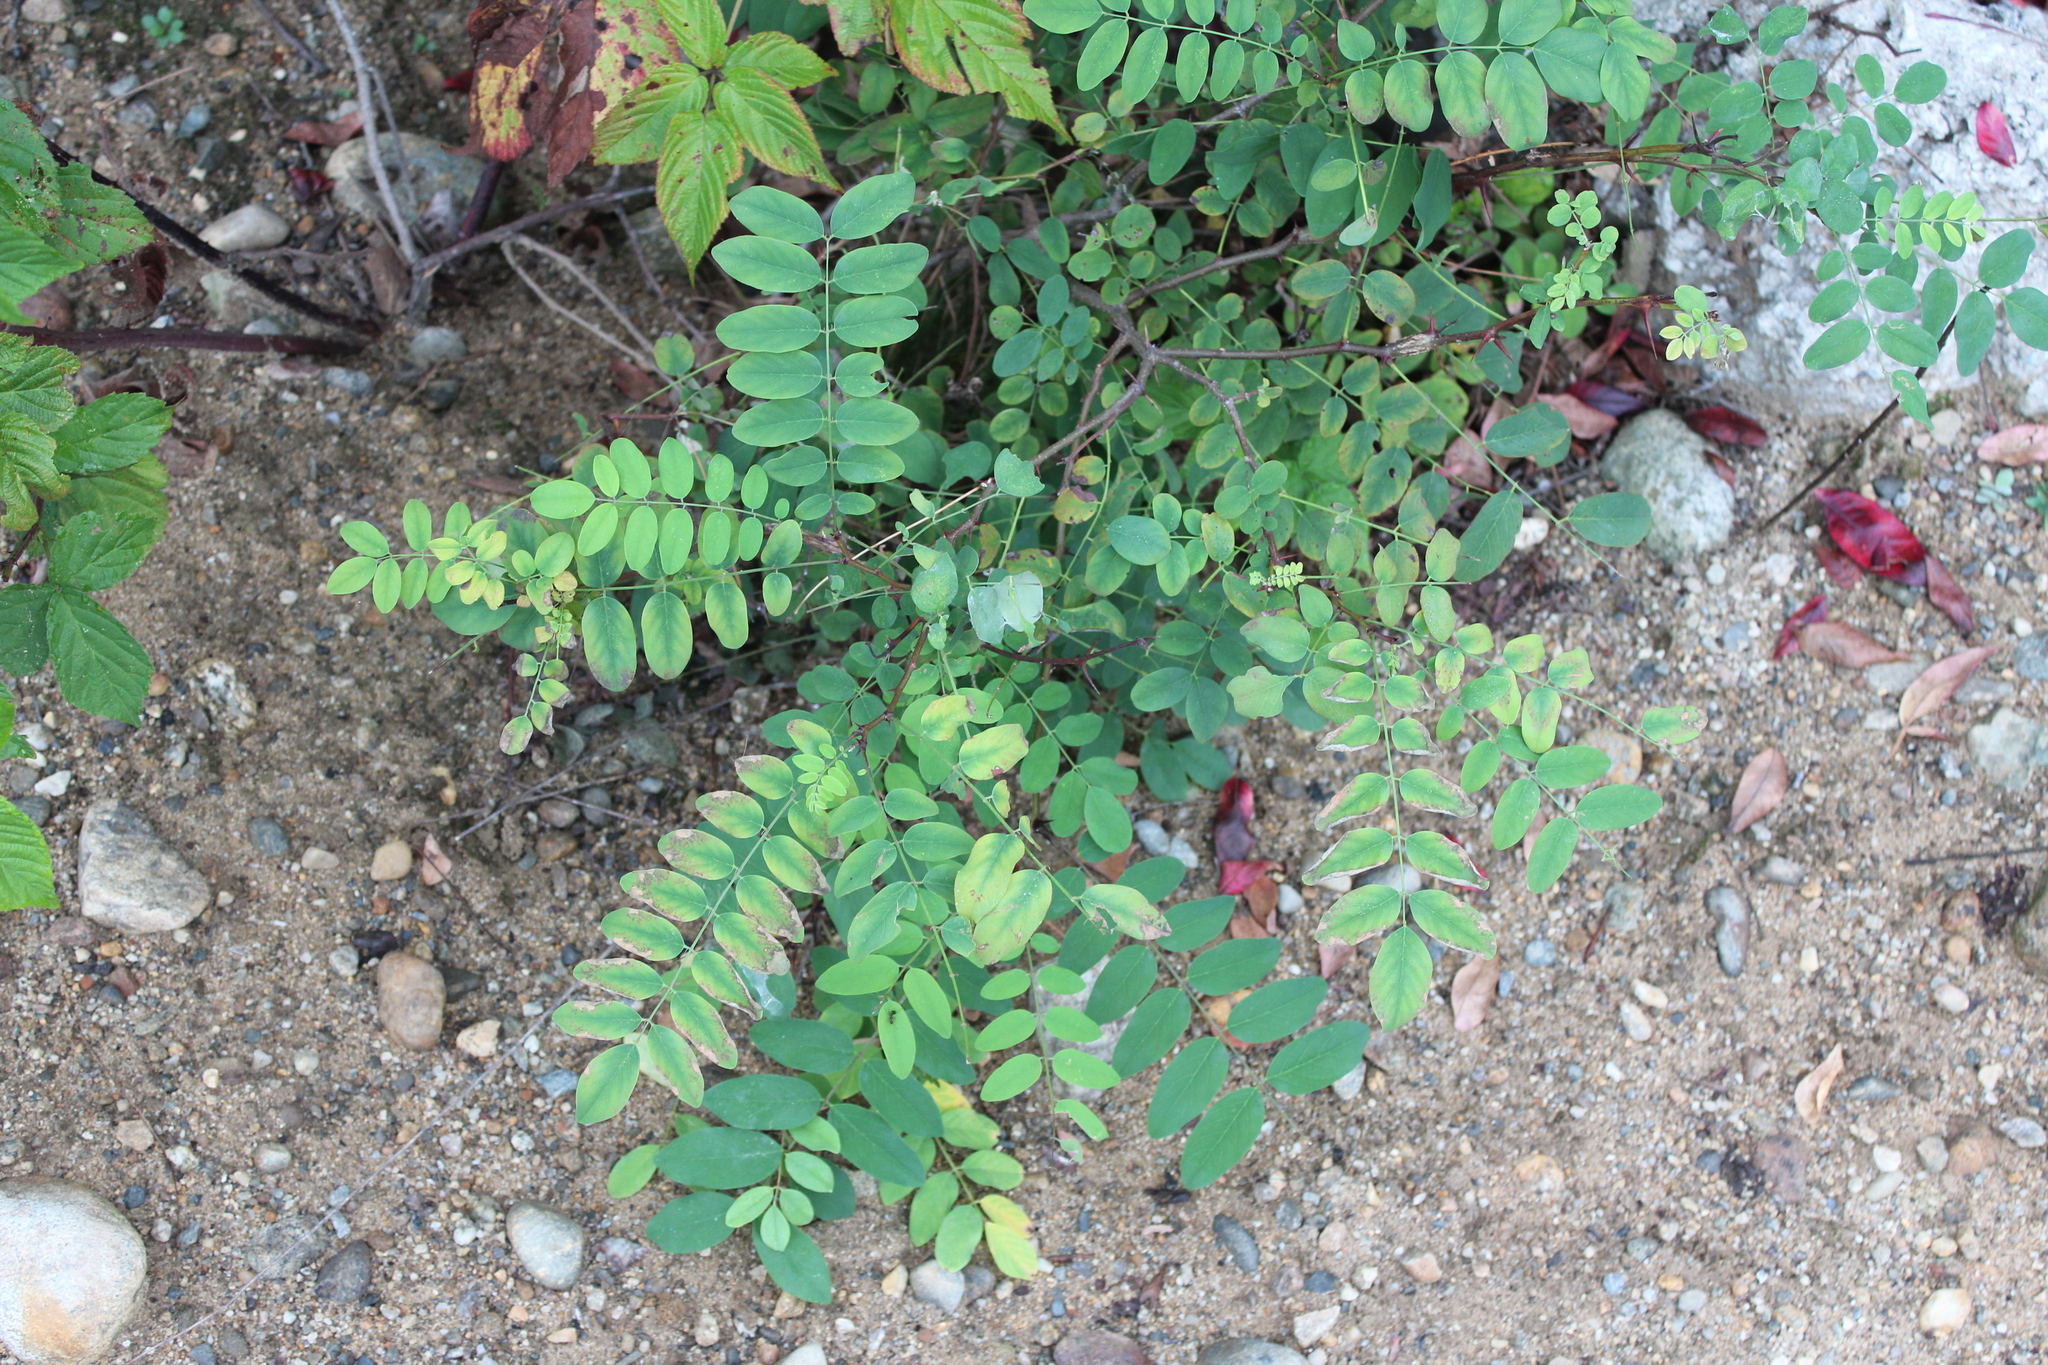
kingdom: Plantae
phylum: Tracheophyta
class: Magnoliopsida
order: Fabales
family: Fabaceae
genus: Robinia
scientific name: Robinia pseudoacacia
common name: Black locust
